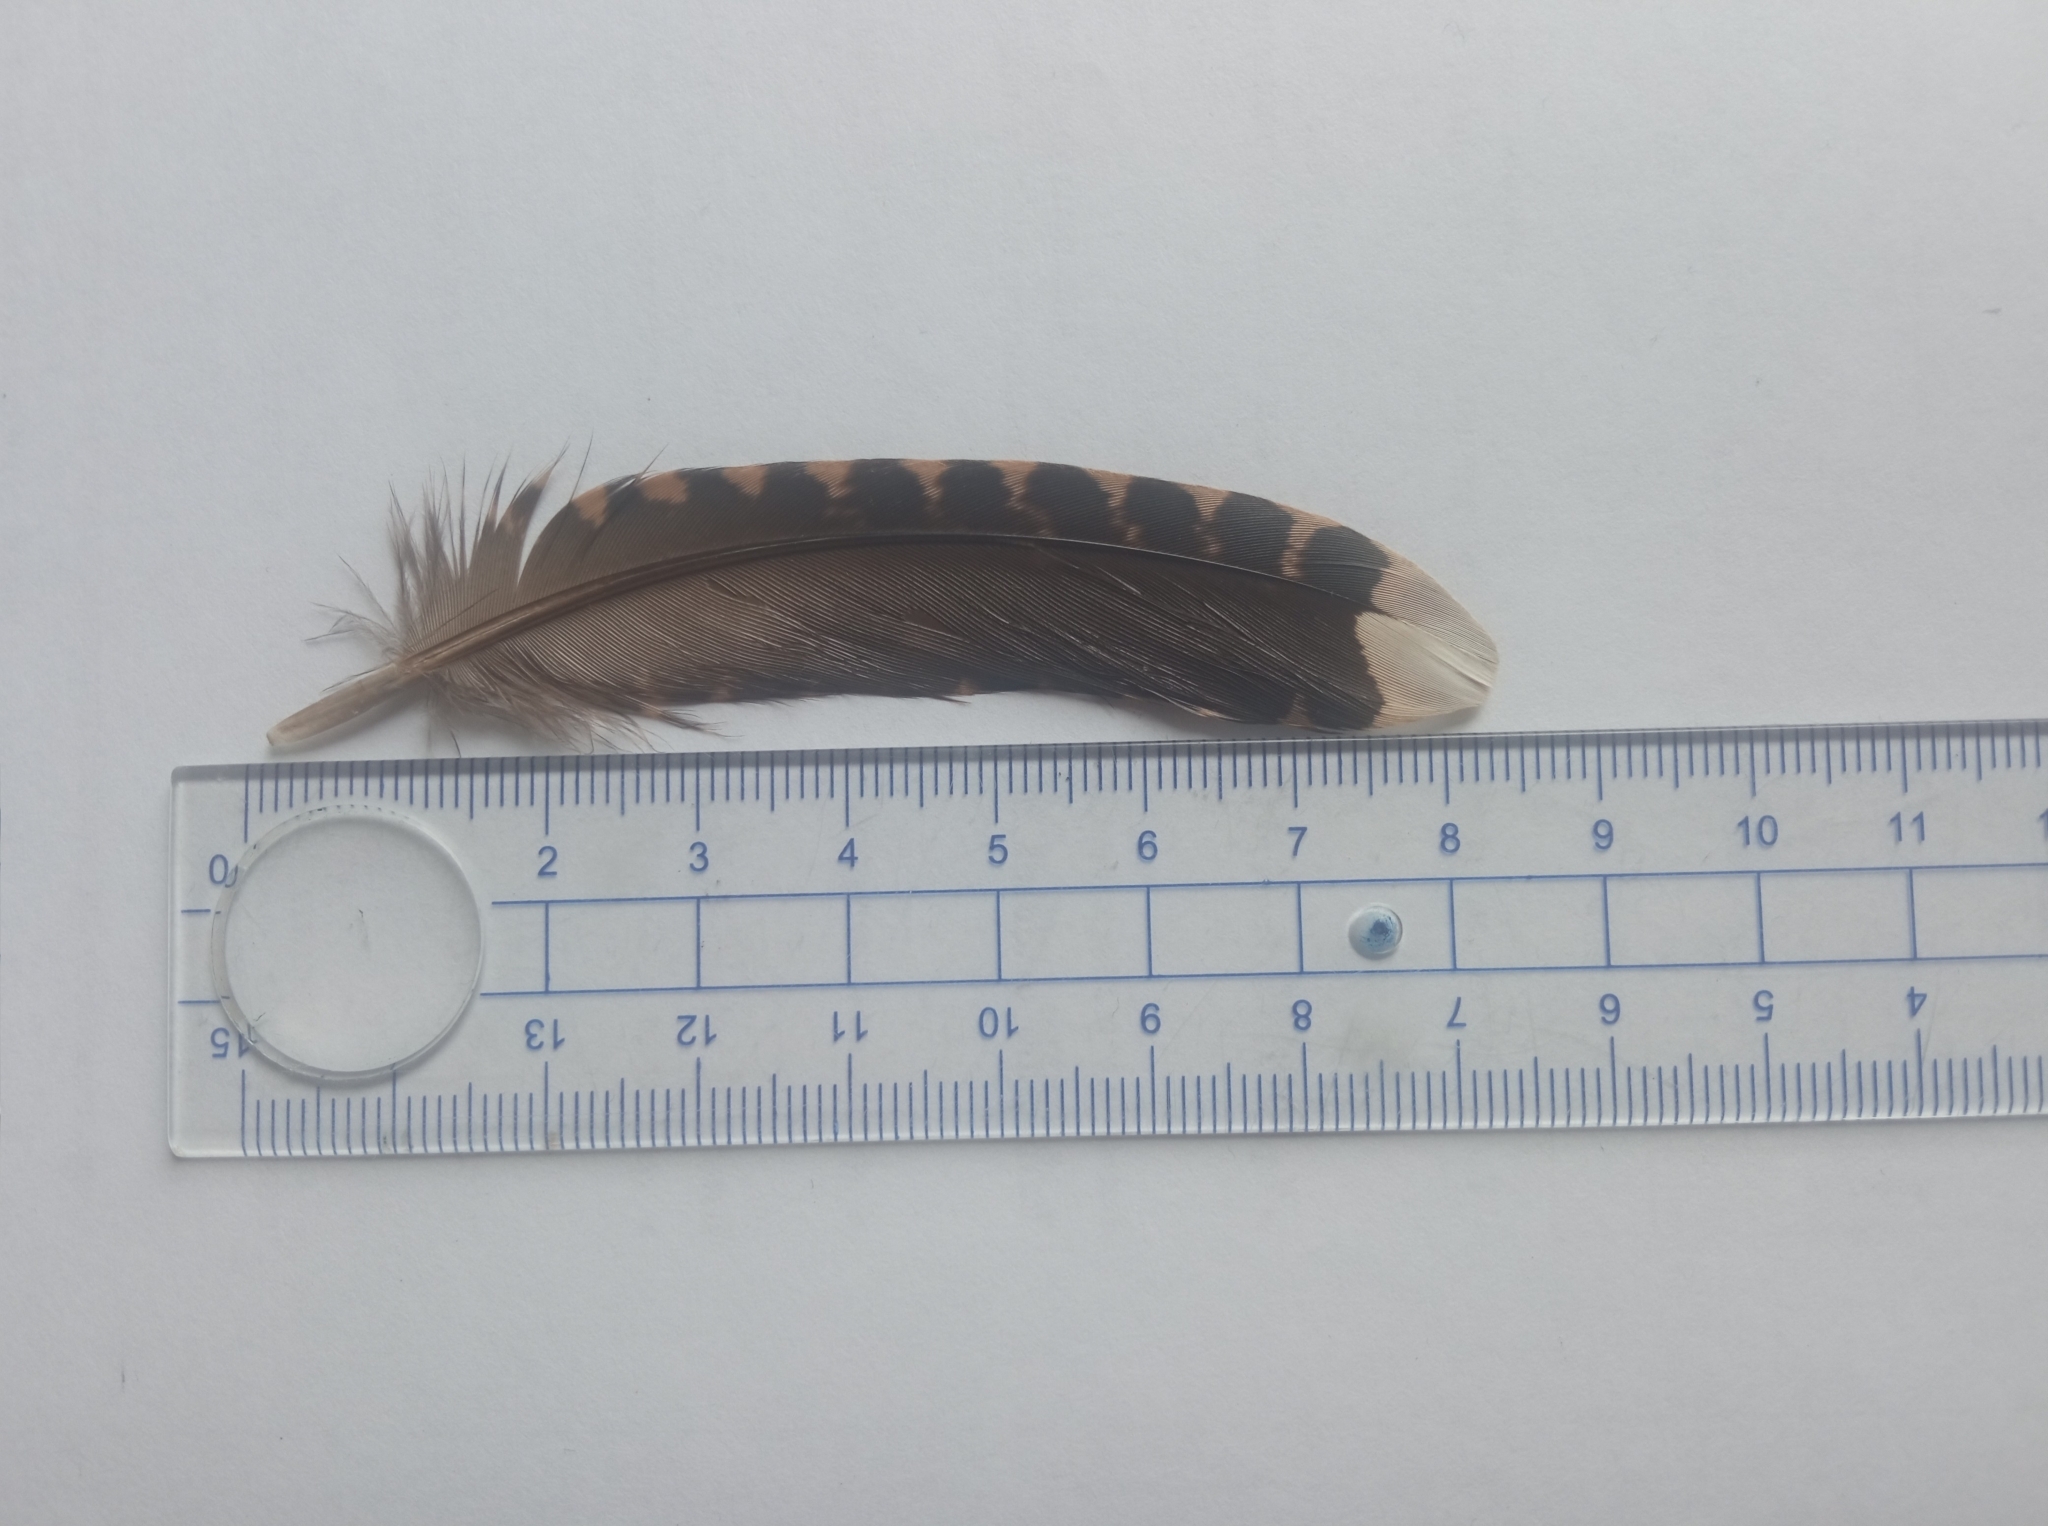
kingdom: Animalia
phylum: Chordata
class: Aves
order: Charadriiformes
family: Scolopacidae
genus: Scolopax
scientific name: Scolopax rusticola
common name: Eurasian woodcock
